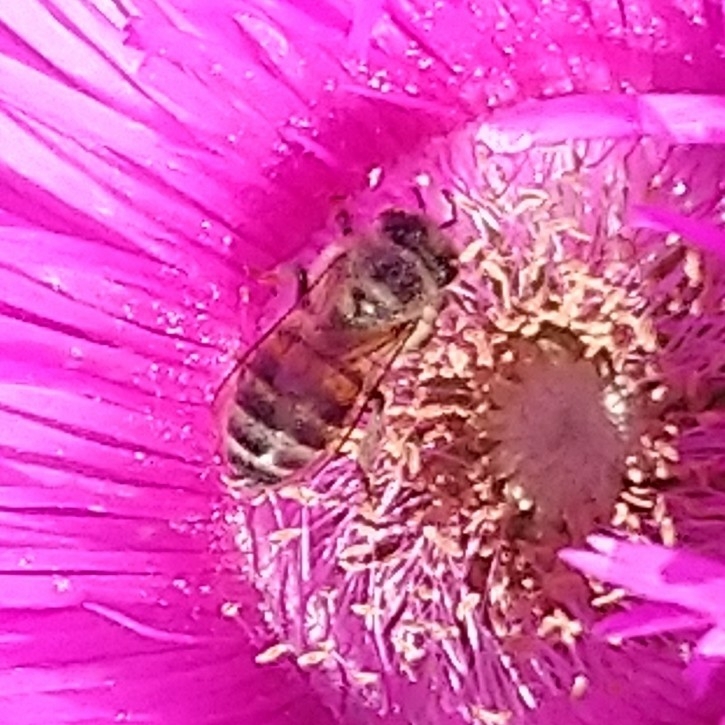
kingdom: Animalia
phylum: Arthropoda
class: Insecta
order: Hymenoptera
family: Apidae
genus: Apis
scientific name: Apis mellifera
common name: Honey bee
